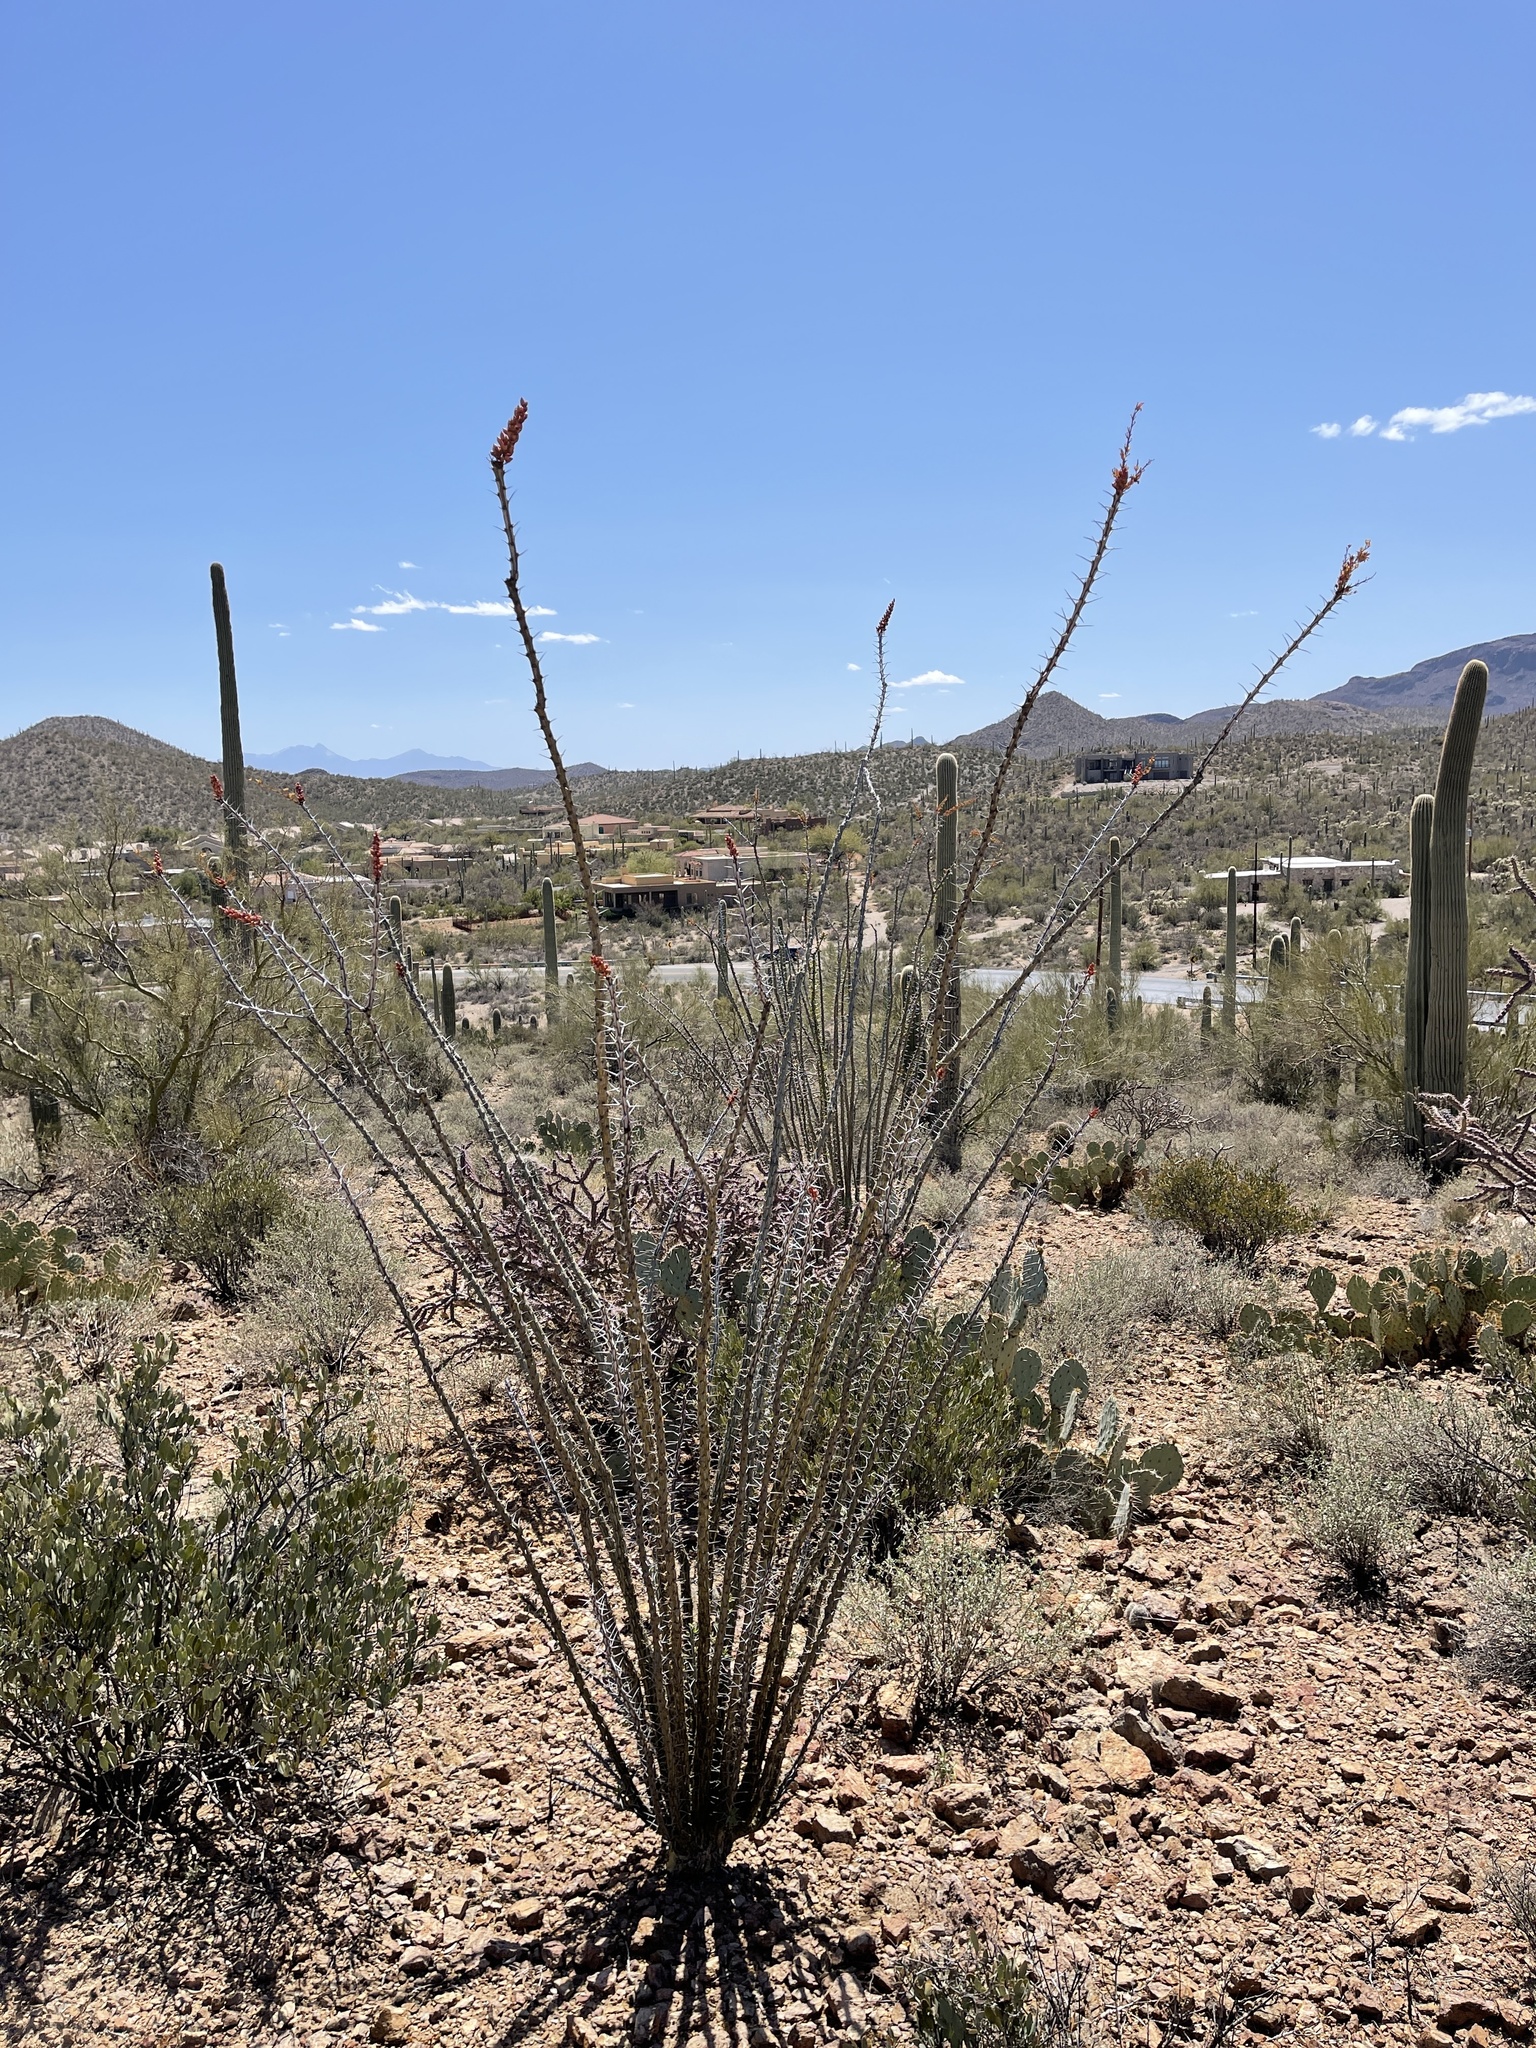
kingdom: Plantae
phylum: Tracheophyta
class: Magnoliopsida
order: Ericales
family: Fouquieriaceae
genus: Fouquieria
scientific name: Fouquieria splendens
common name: Vine-cactus
